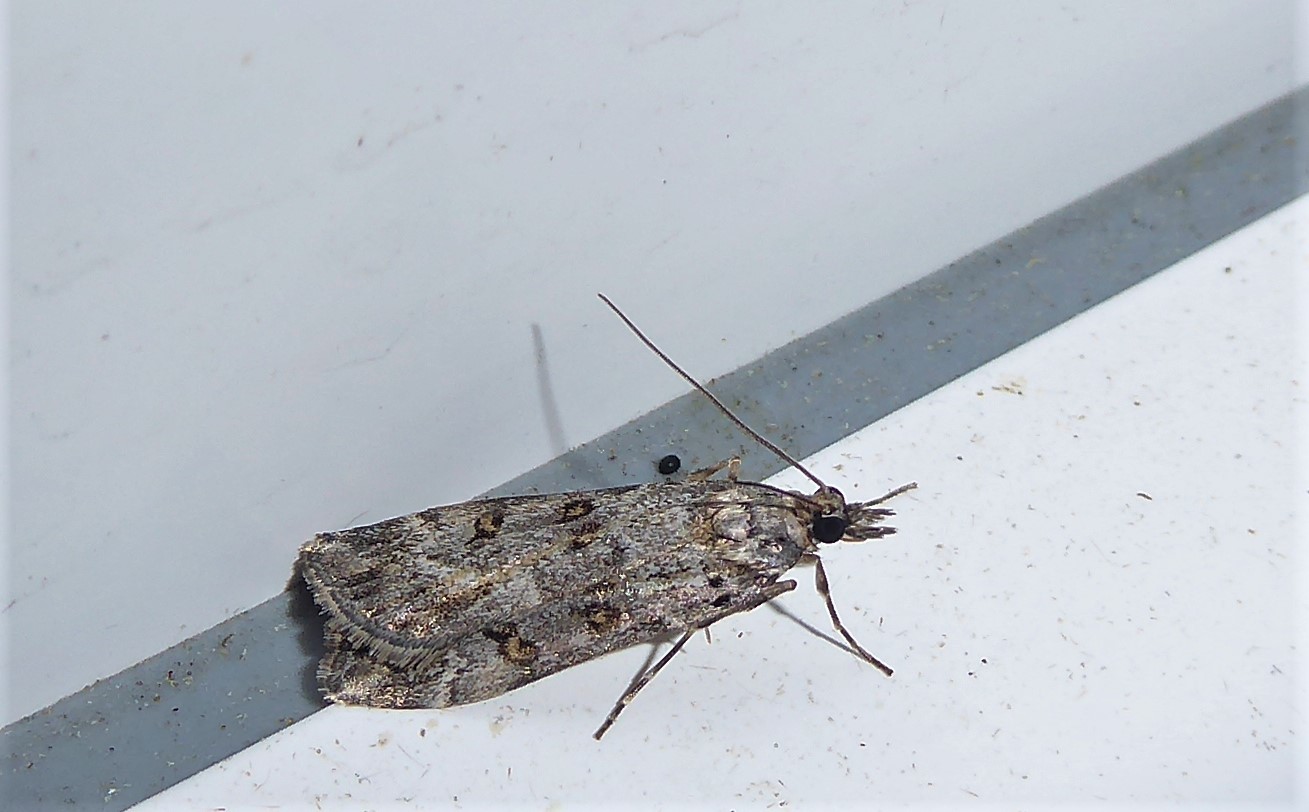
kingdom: Animalia
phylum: Arthropoda
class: Insecta
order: Lepidoptera
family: Crambidae
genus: Eudonia
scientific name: Eudonia diphtheralis
